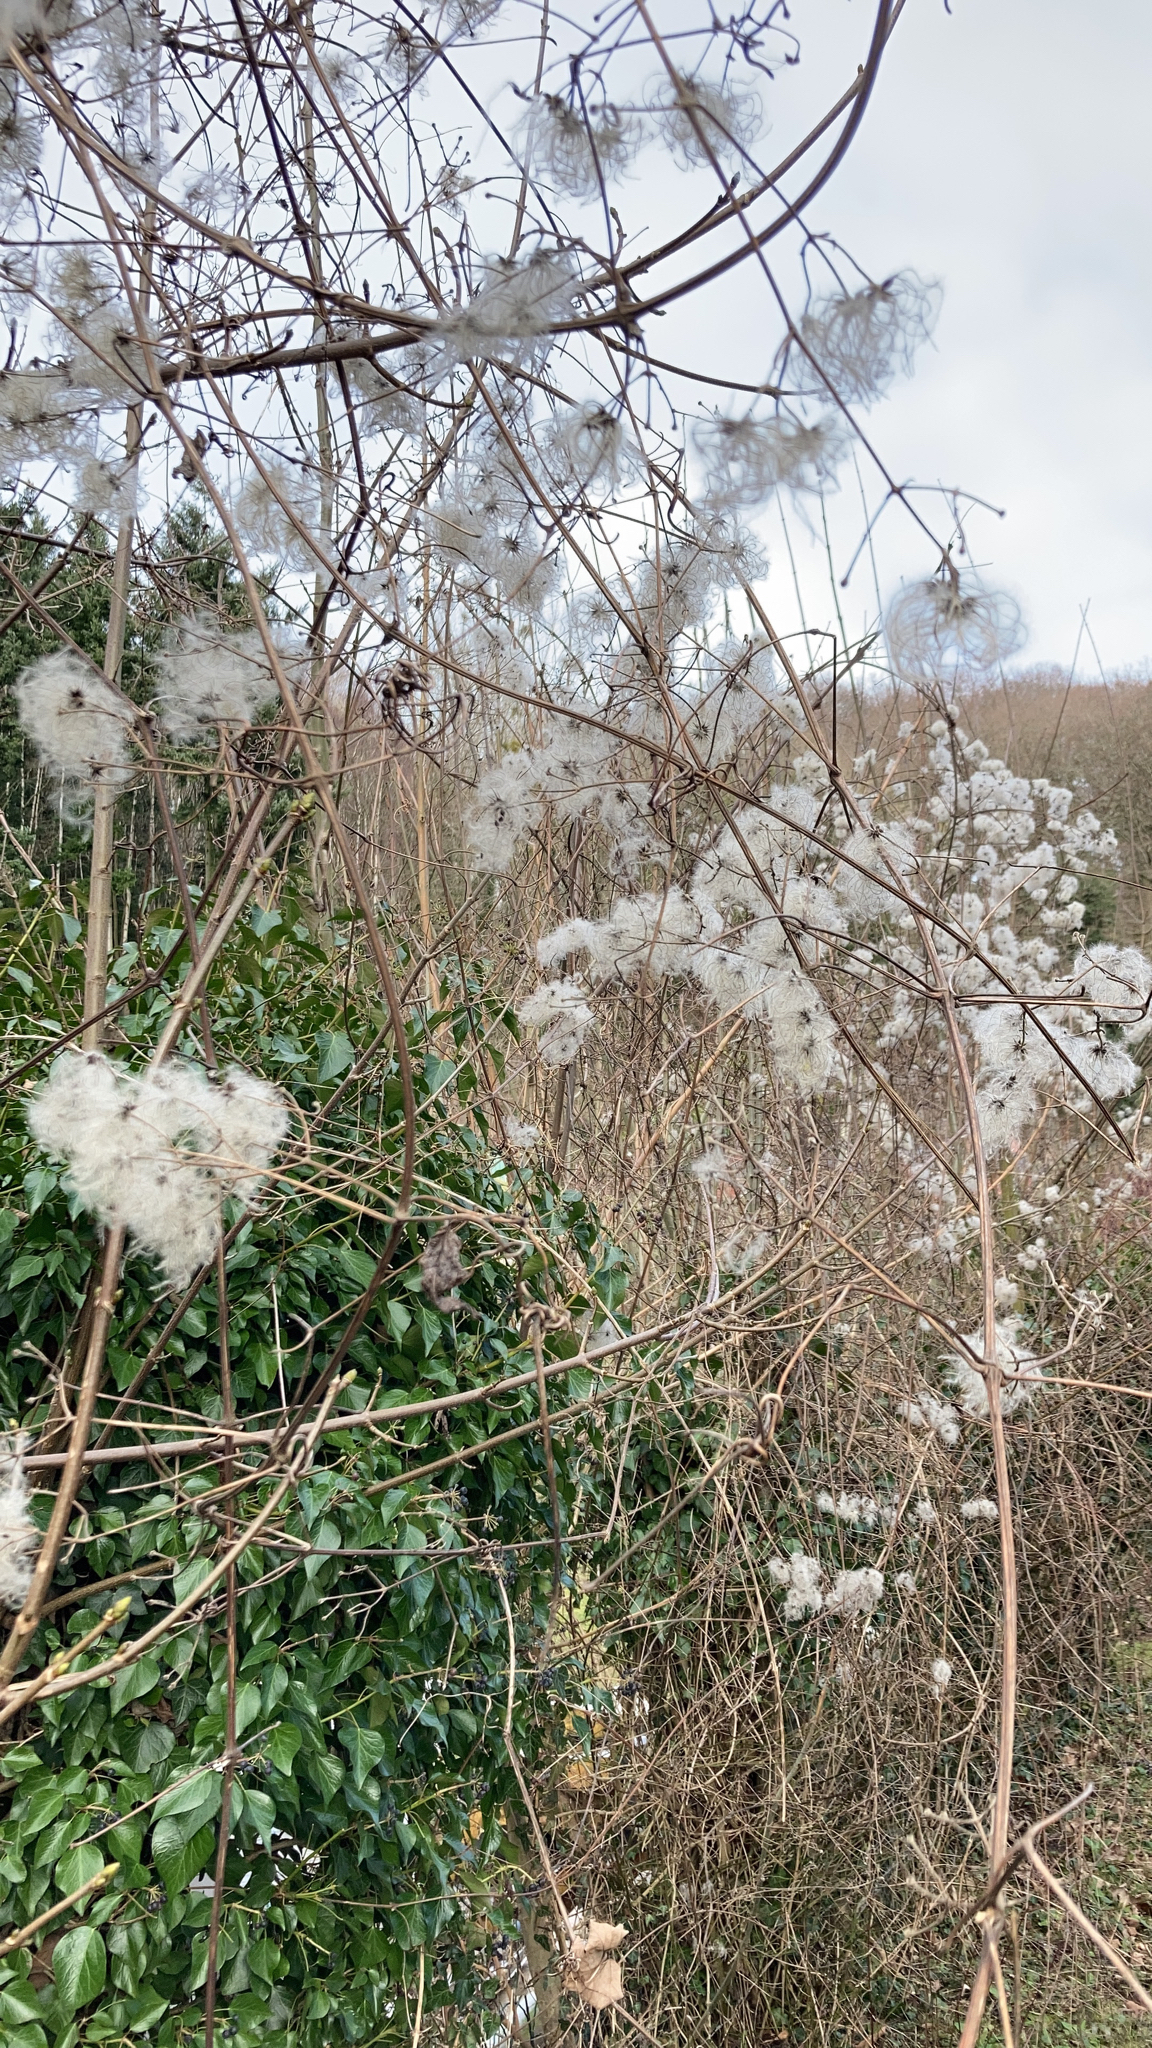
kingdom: Plantae
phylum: Tracheophyta
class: Magnoliopsida
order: Ranunculales
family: Ranunculaceae
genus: Clematis
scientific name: Clematis vitalba
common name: Evergreen clematis
